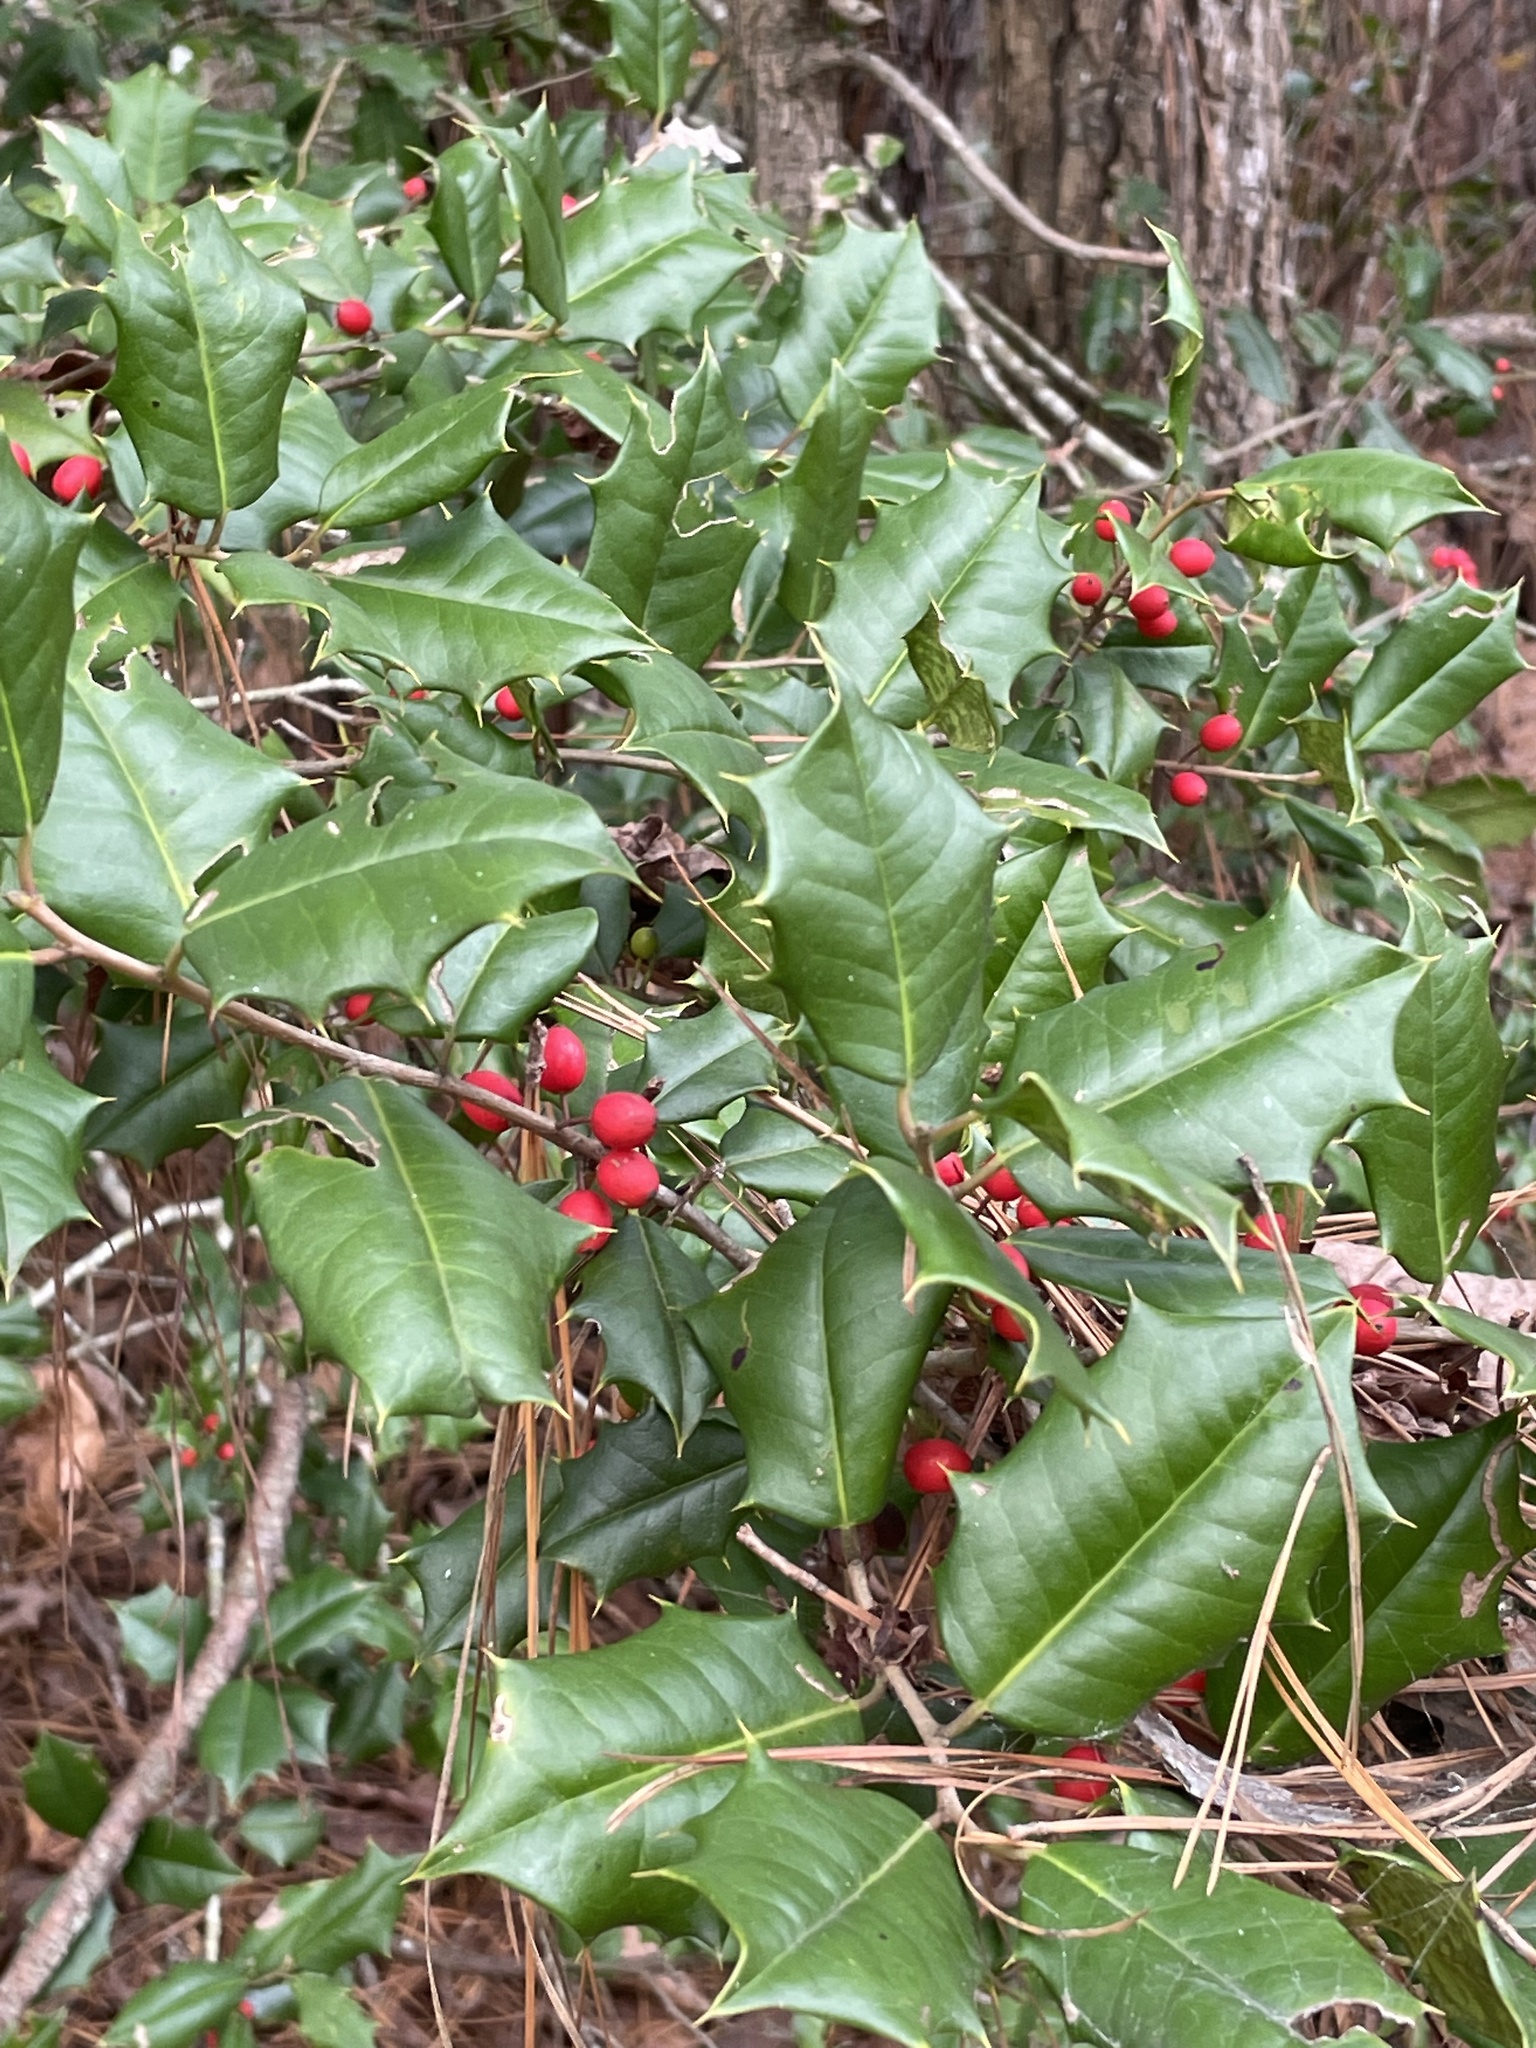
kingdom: Plantae
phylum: Tracheophyta
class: Magnoliopsida
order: Aquifoliales
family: Aquifoliaceae
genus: Ilex
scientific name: Ilex opaca
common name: American holly
